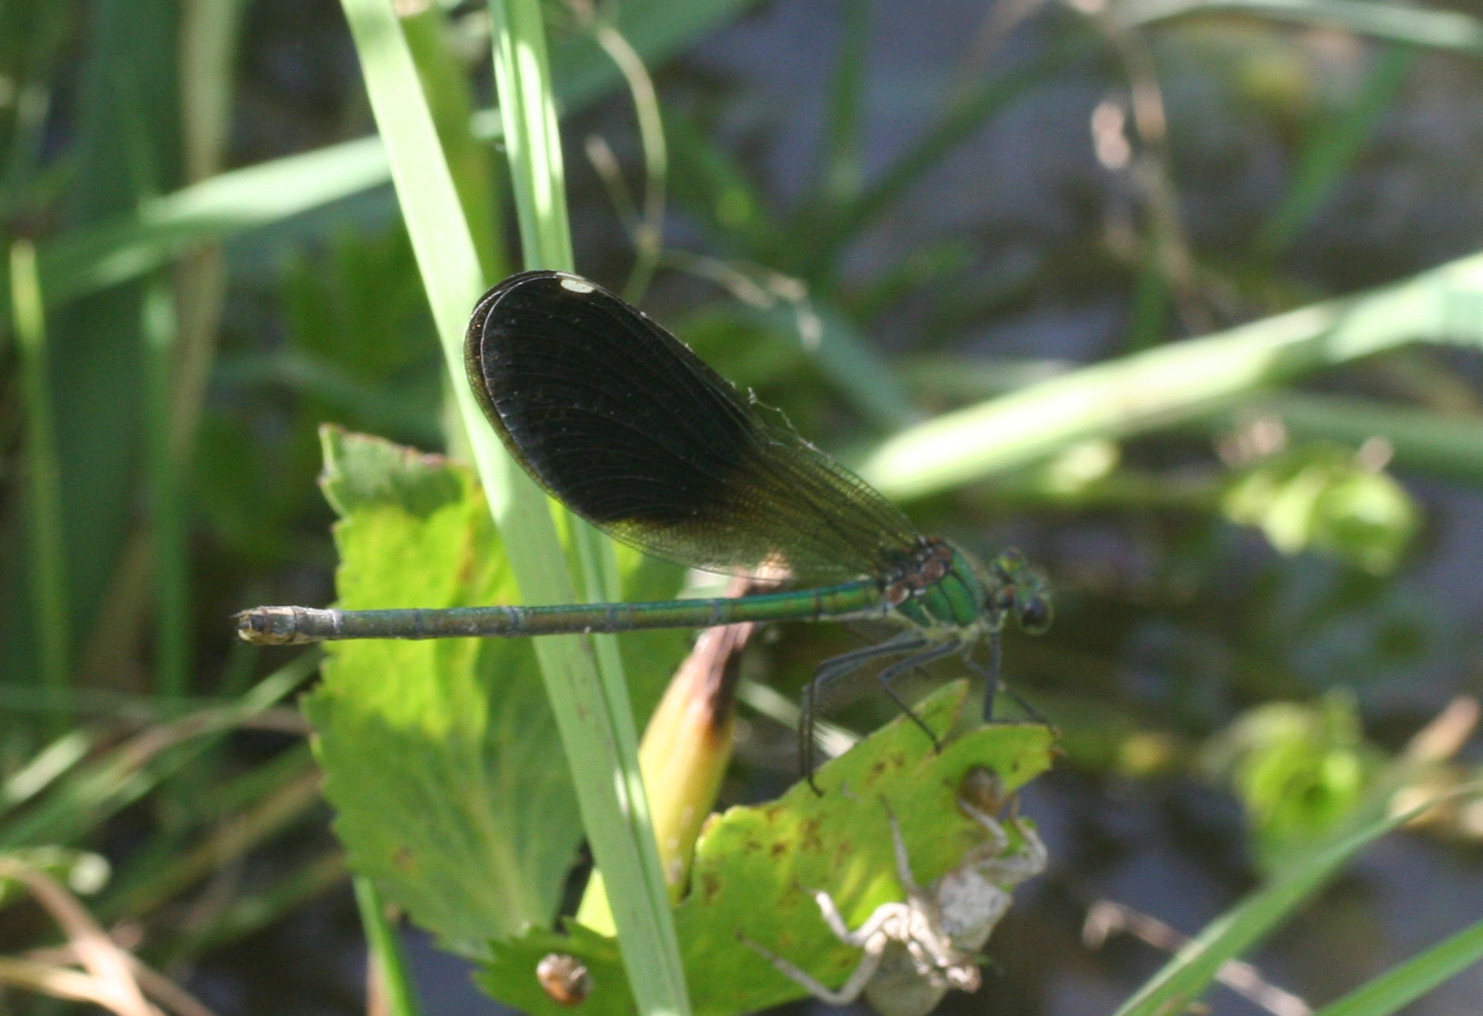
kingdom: Animalia
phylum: Arthropoda
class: Insecta
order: Odonata
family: Calopterygidae
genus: Calopteryx
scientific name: Calopteryx splendens
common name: Banded demoiselle
